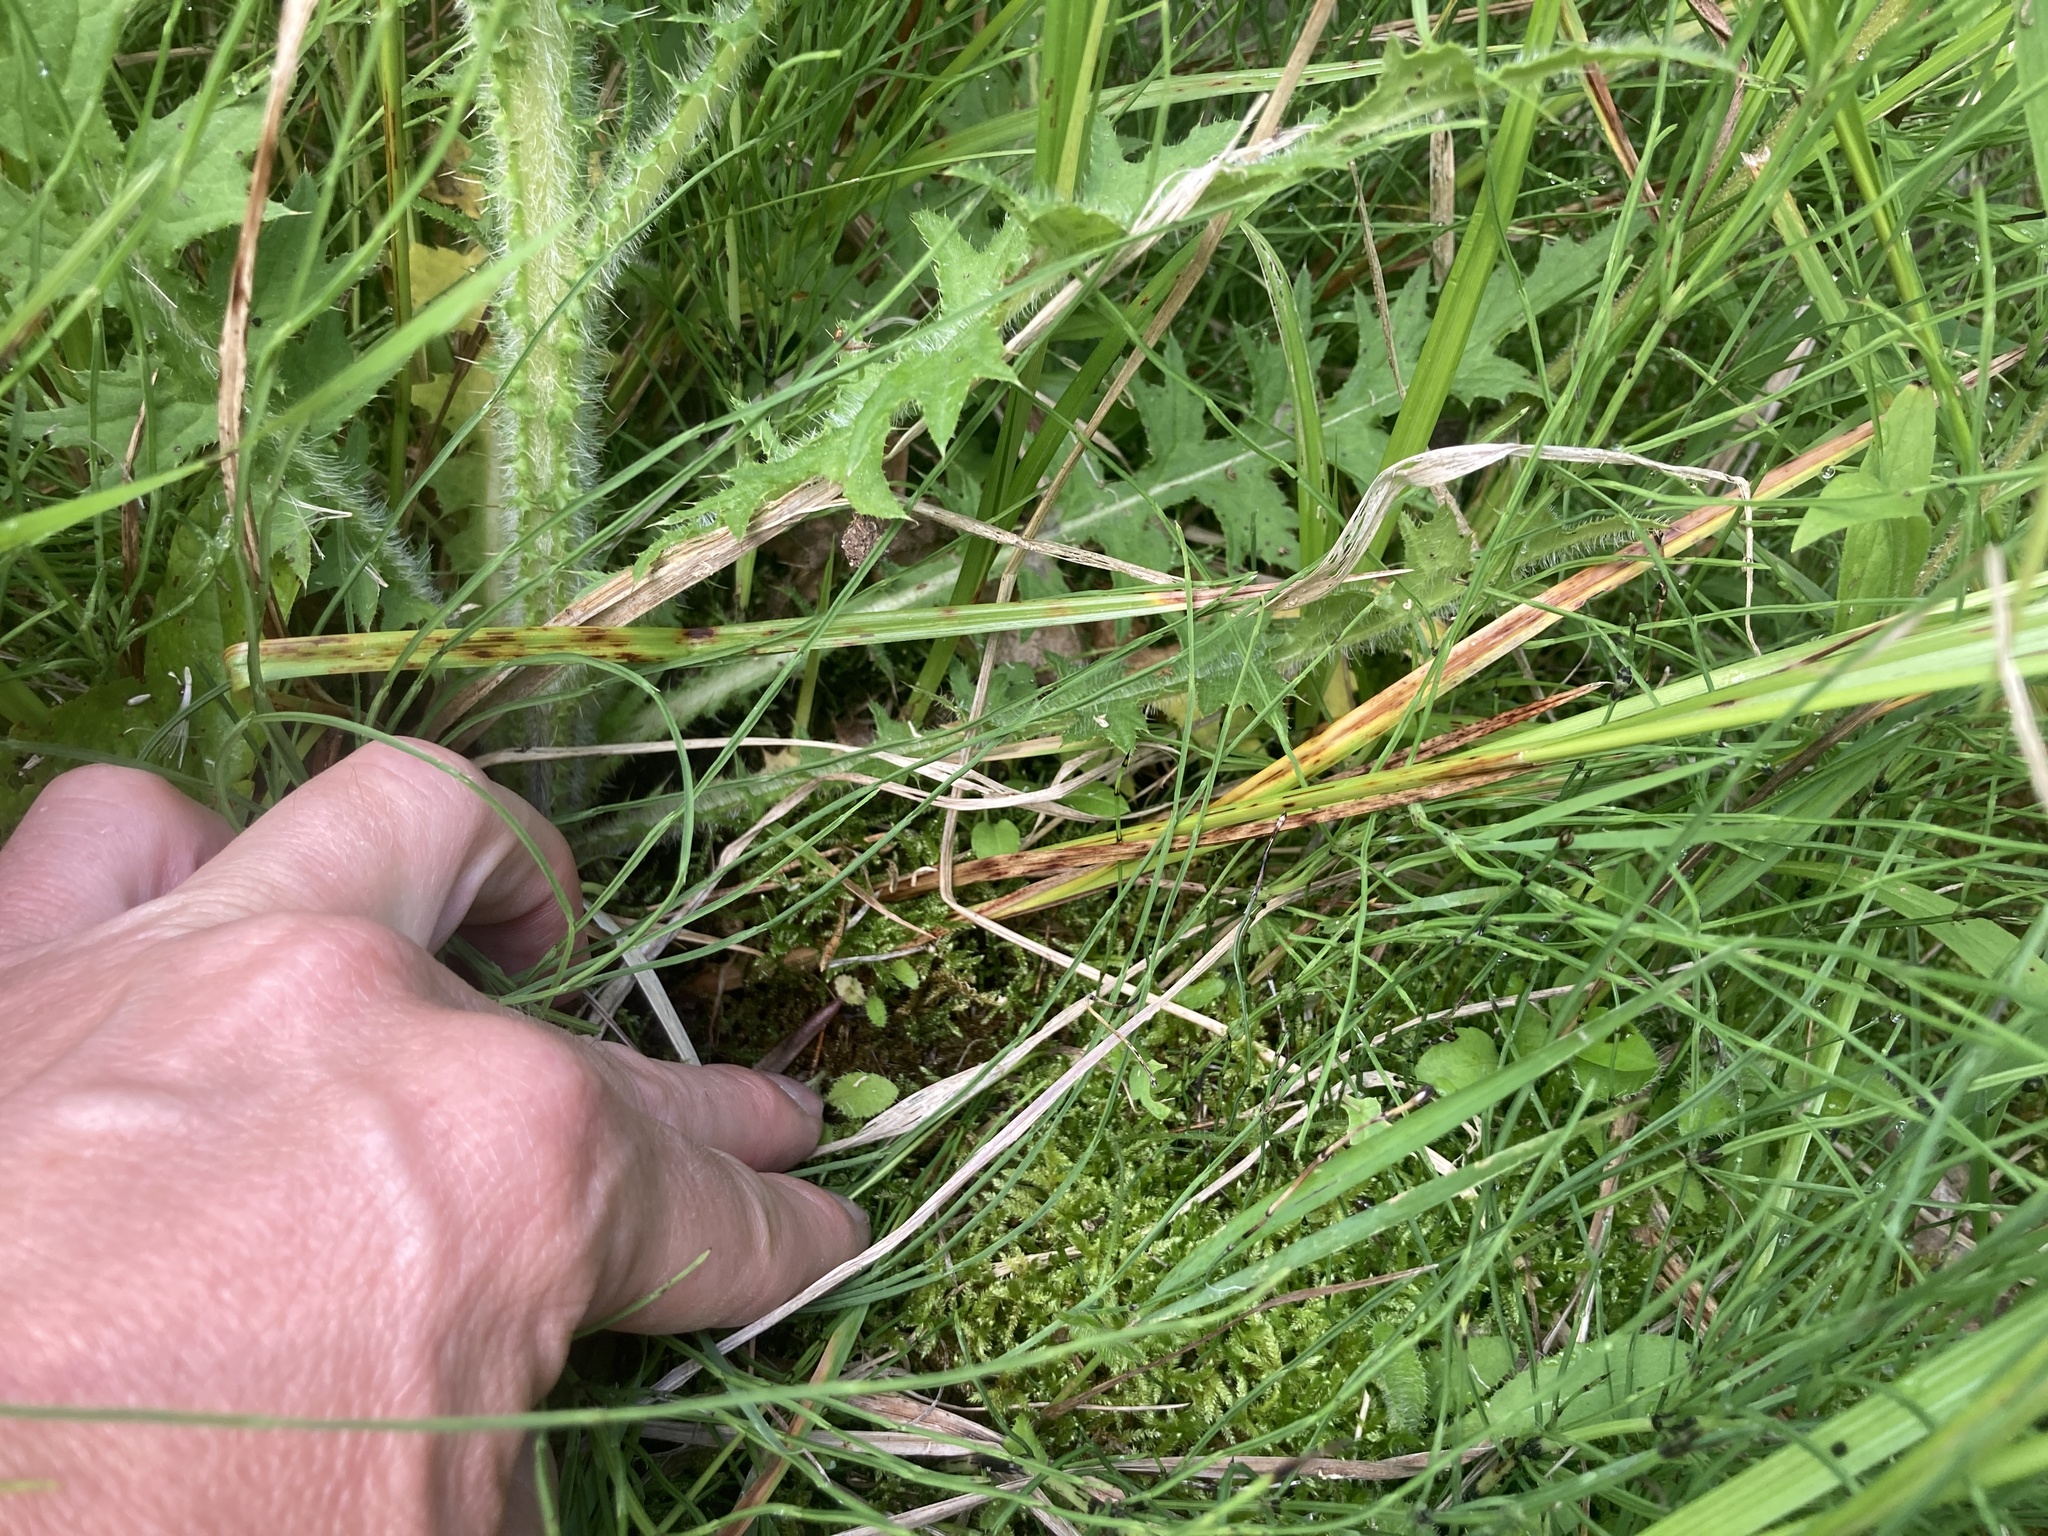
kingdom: Plantae
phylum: Tracheophyta
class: Liliopsida
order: Poales
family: Cyperaceae
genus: Carex
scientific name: Carex hystericina
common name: Bottlebrush sedge
